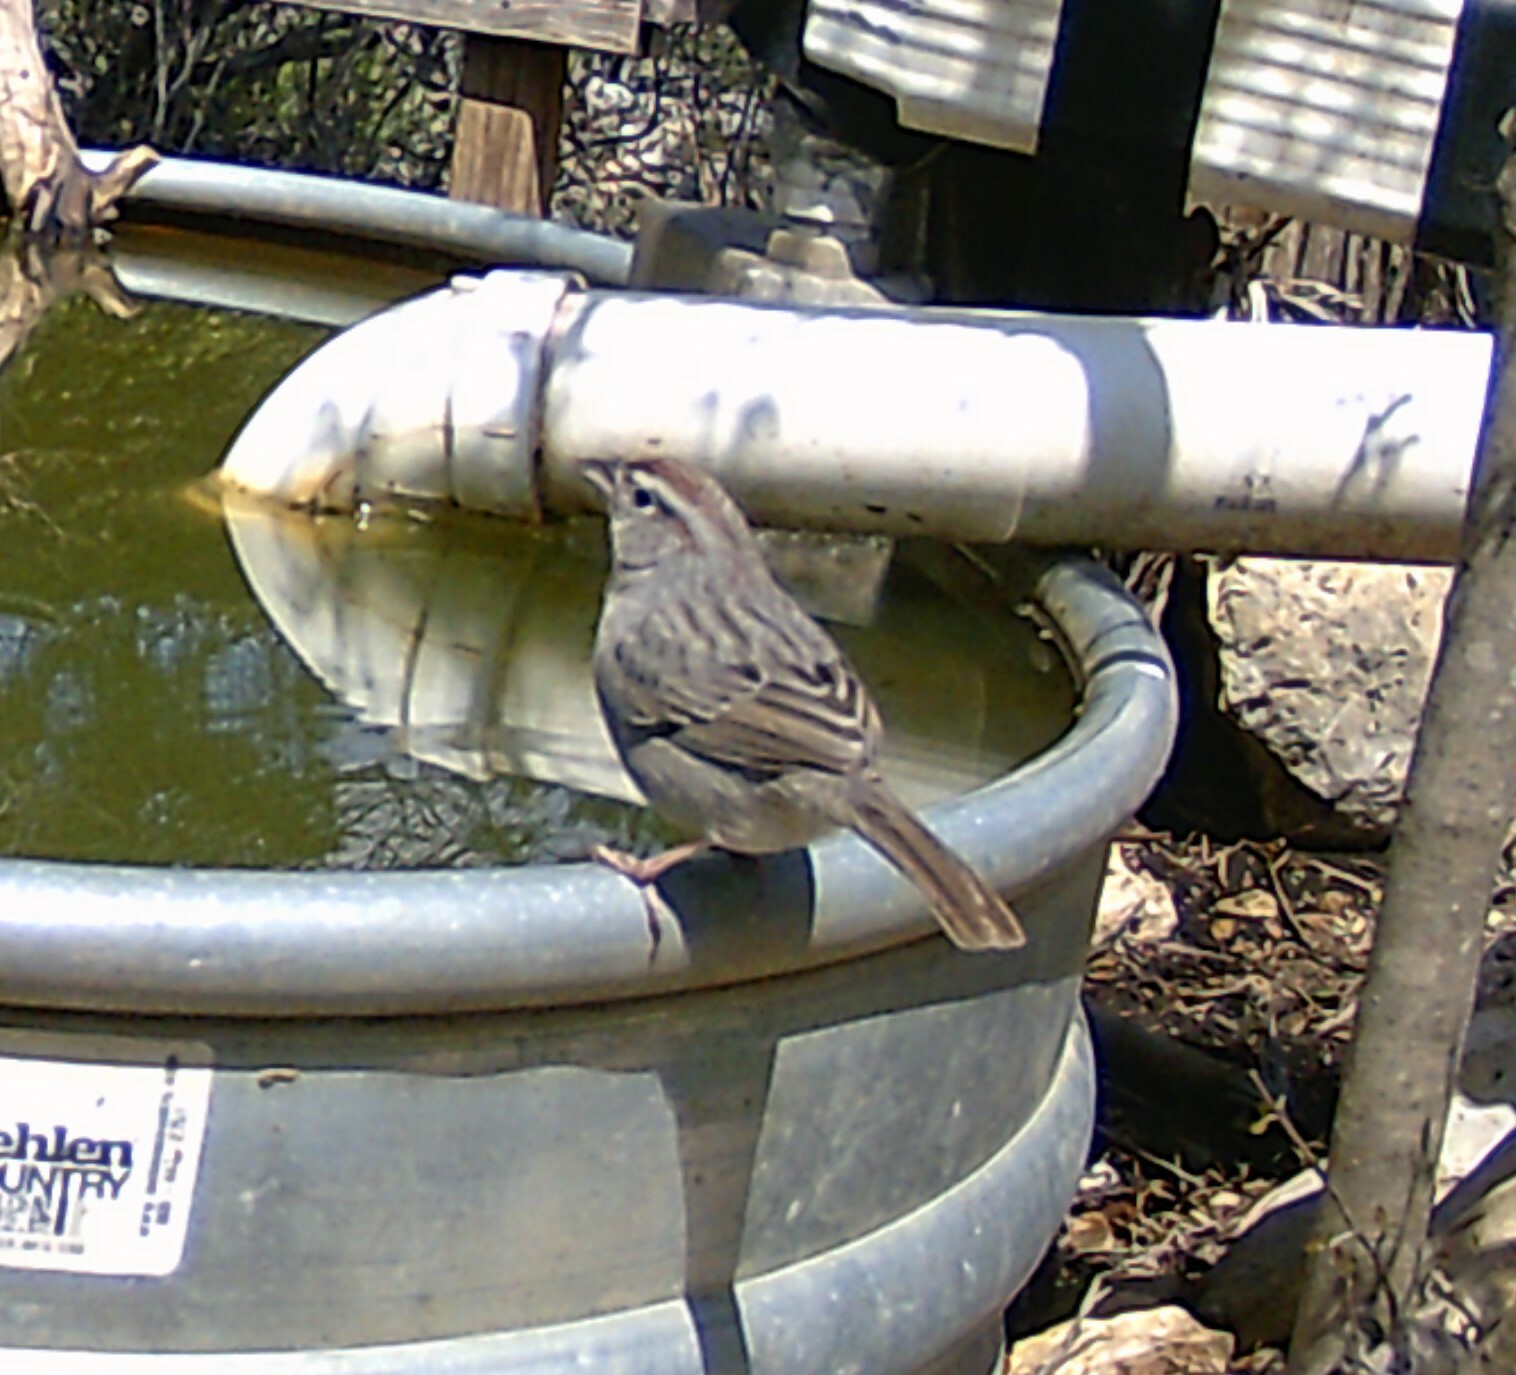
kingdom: Animalia
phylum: Chordata
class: Aves
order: Passeriformes
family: Passerellidae
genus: Aimophila
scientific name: Aimophila ruficeps
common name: Rufous-crowned sparrow
